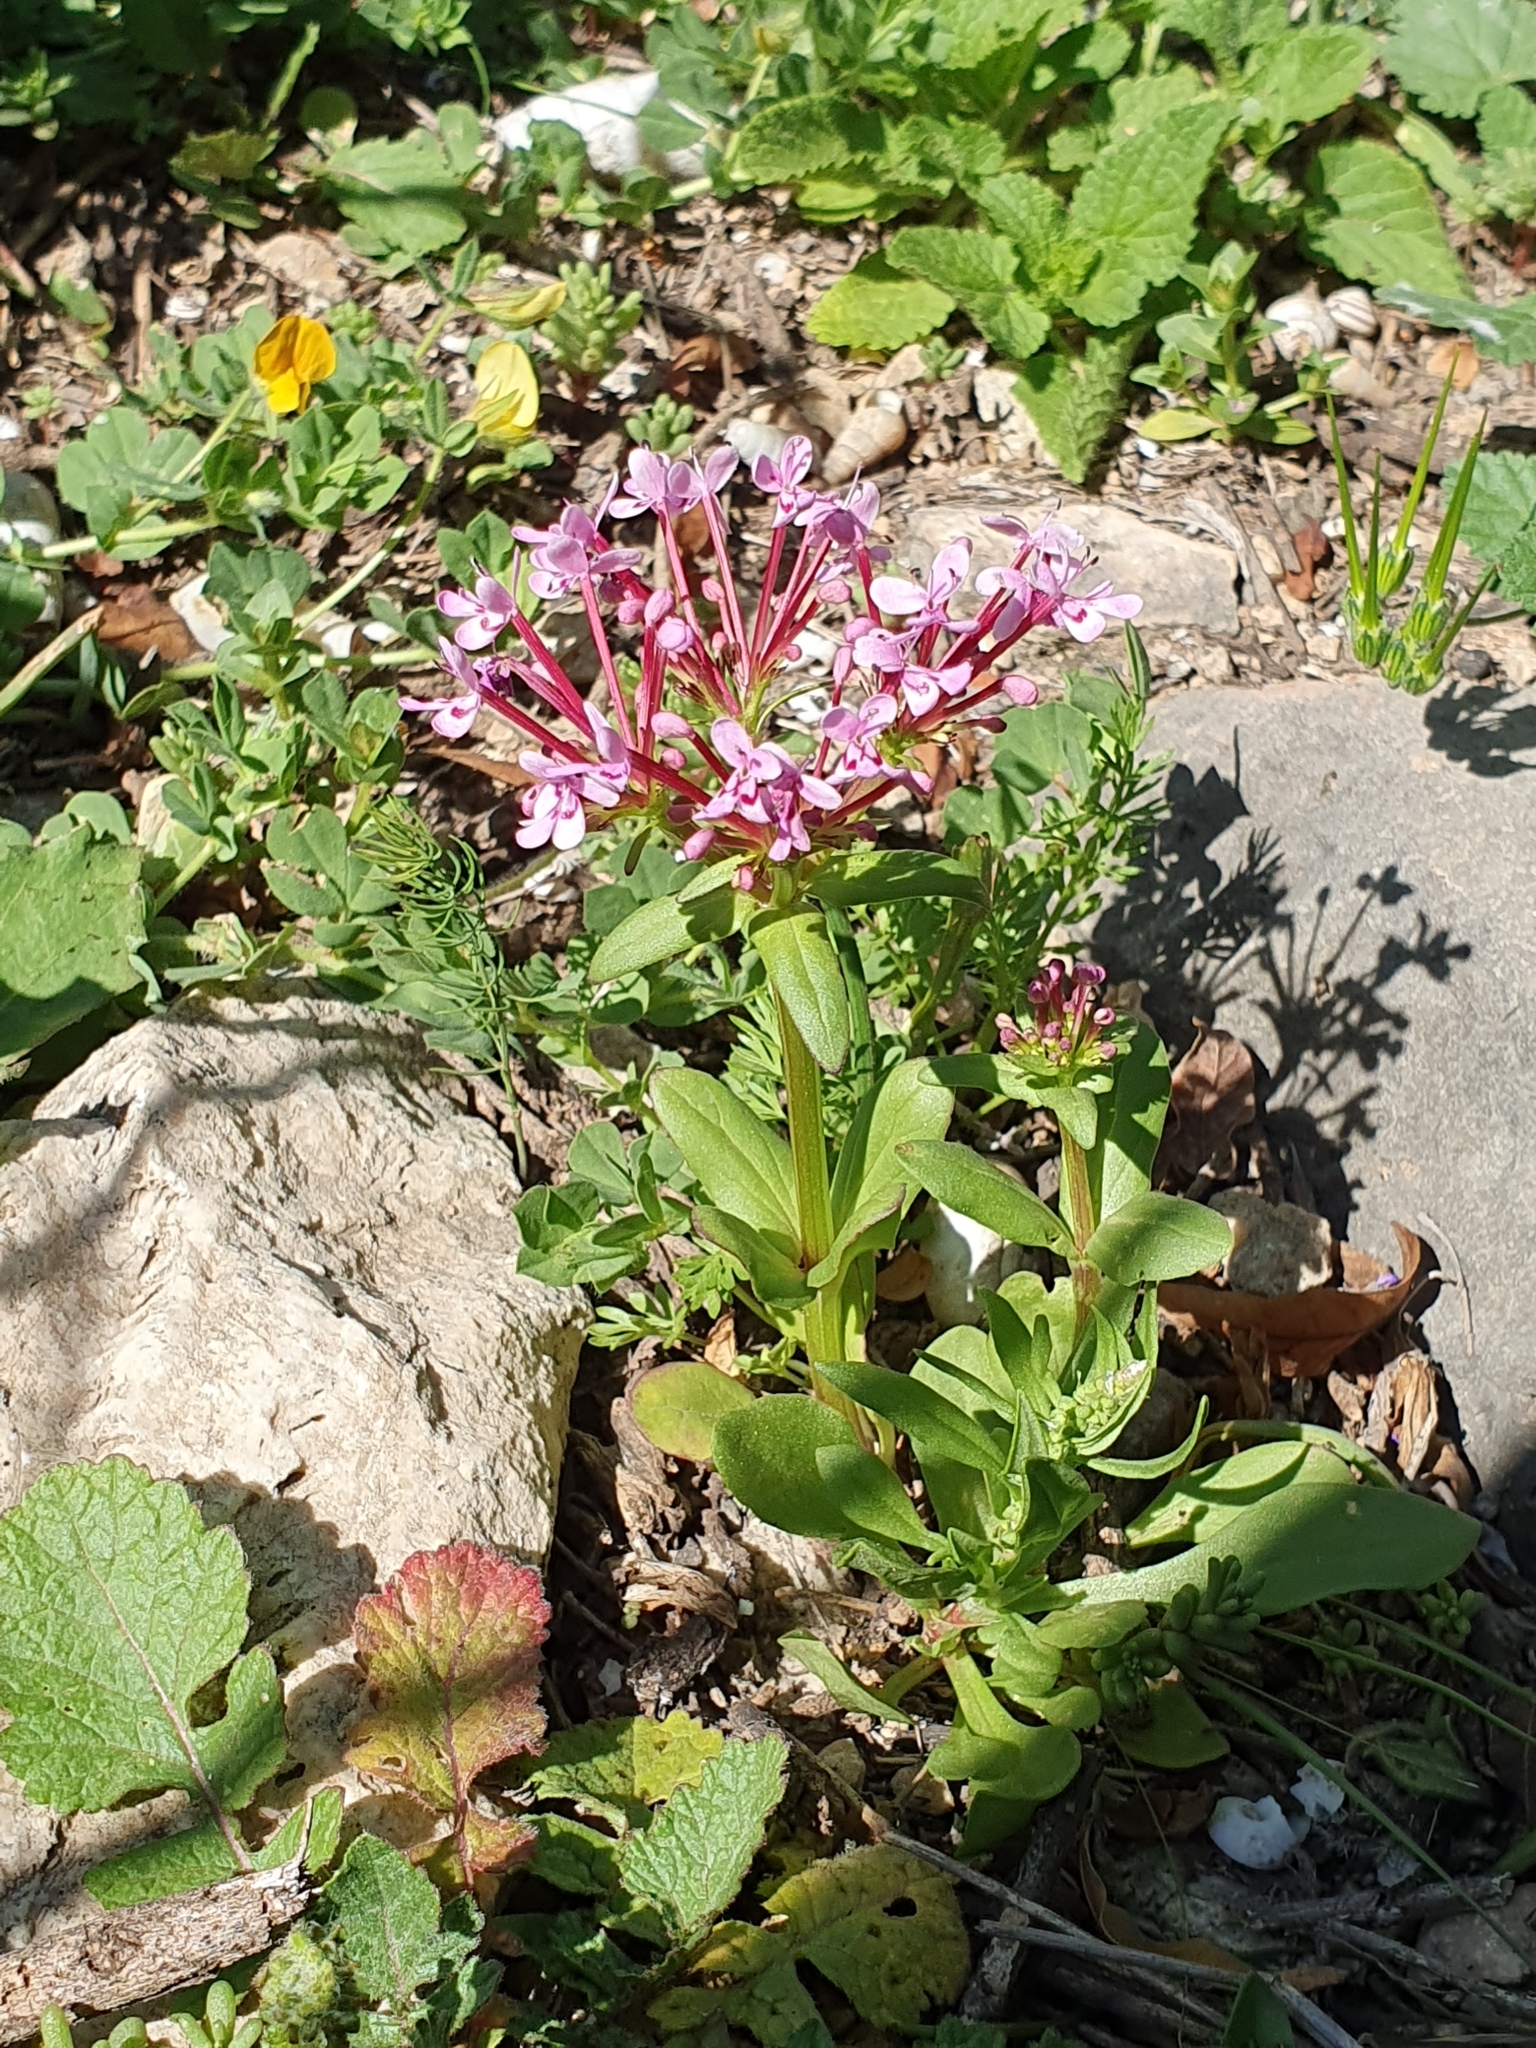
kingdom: Plantae
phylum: Tracheophyta
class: Magnoliopsida
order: Dipsacales
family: Caprifoliaceae
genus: Fedia
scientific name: Fedia graciliflora
